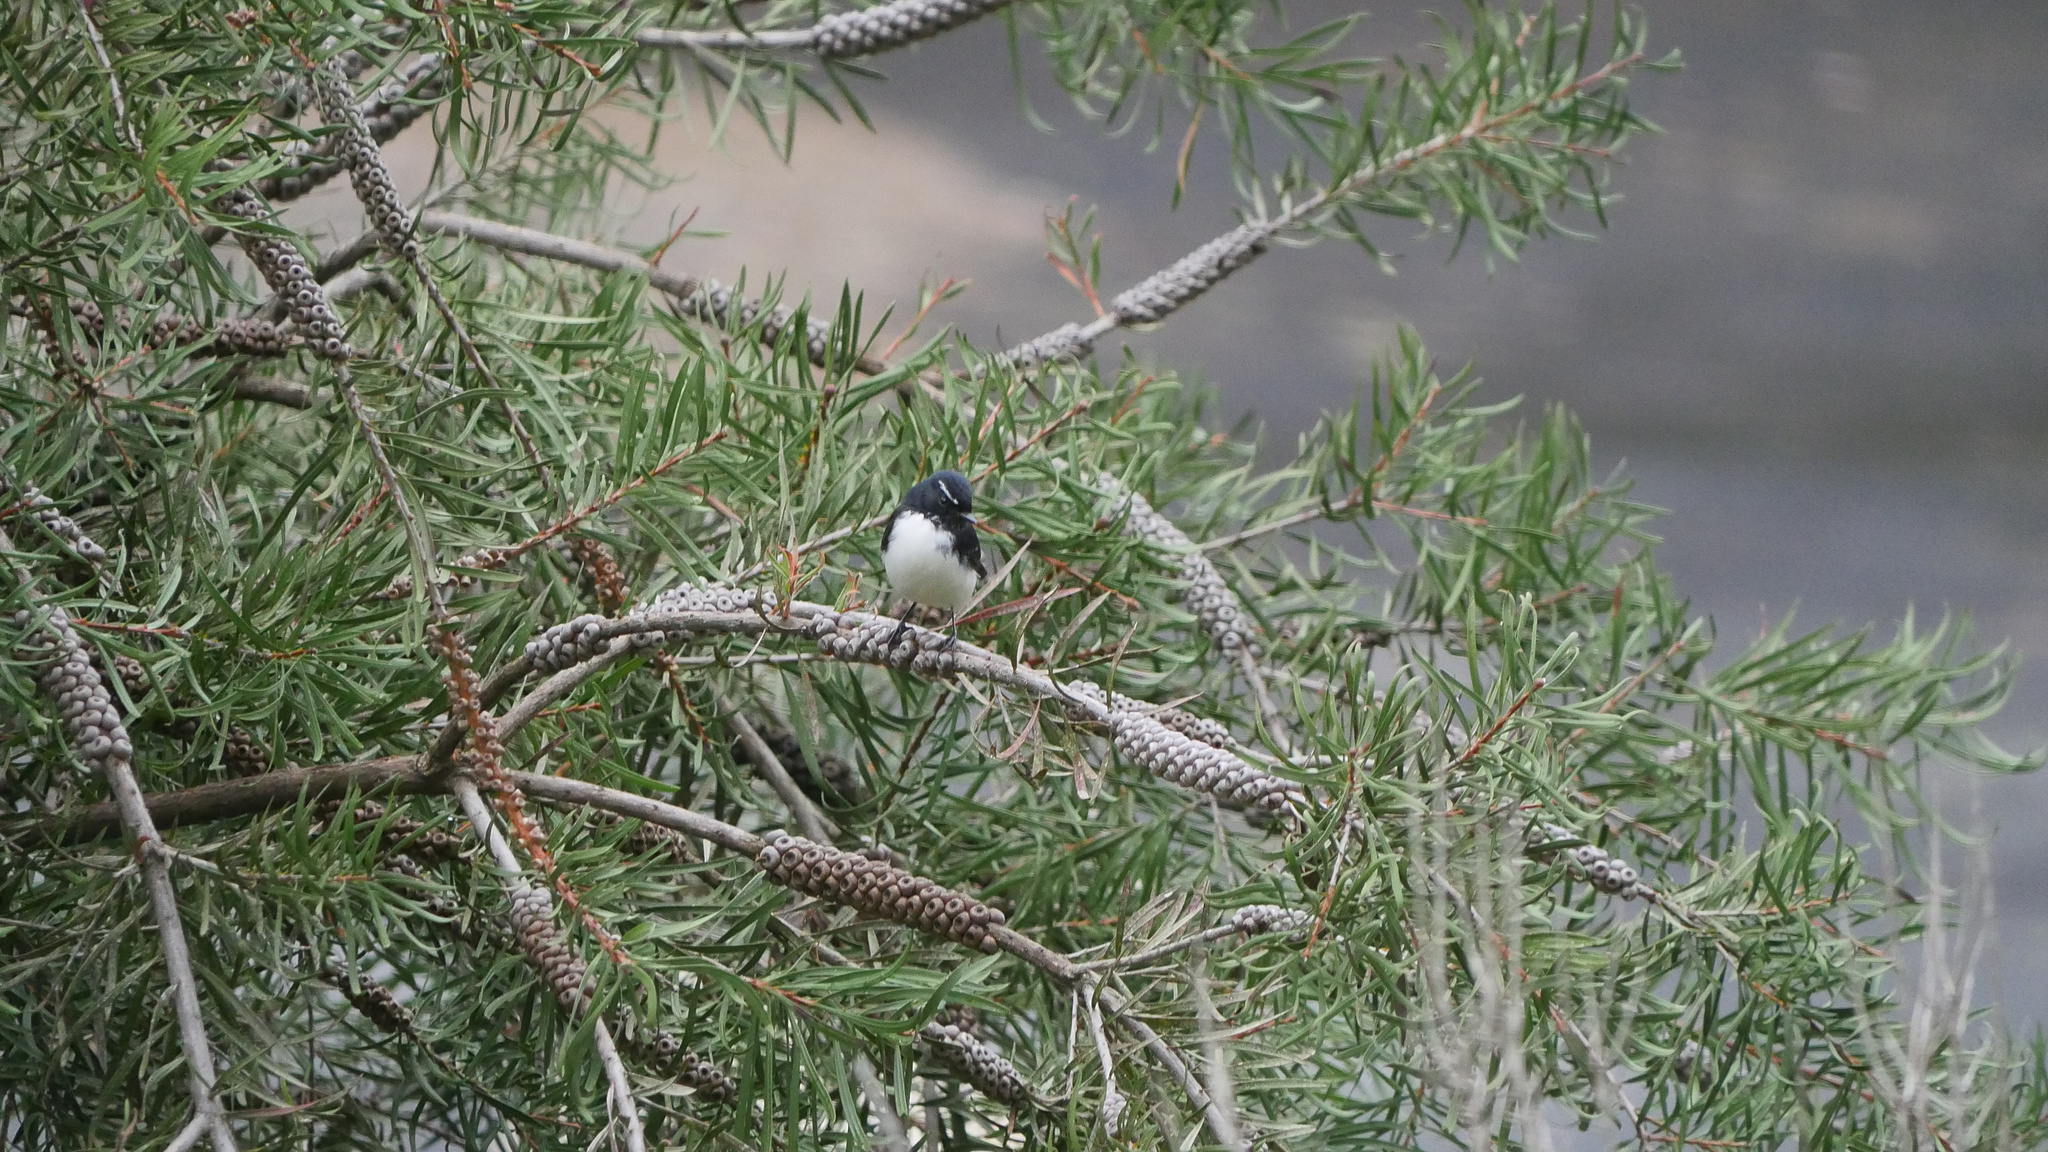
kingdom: Animalia
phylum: Chordata
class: Aves
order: Passeriformes
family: Rhipiduridae
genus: Rhipidura
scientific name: Rhipidura leucophrys
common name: Willie wagtail
